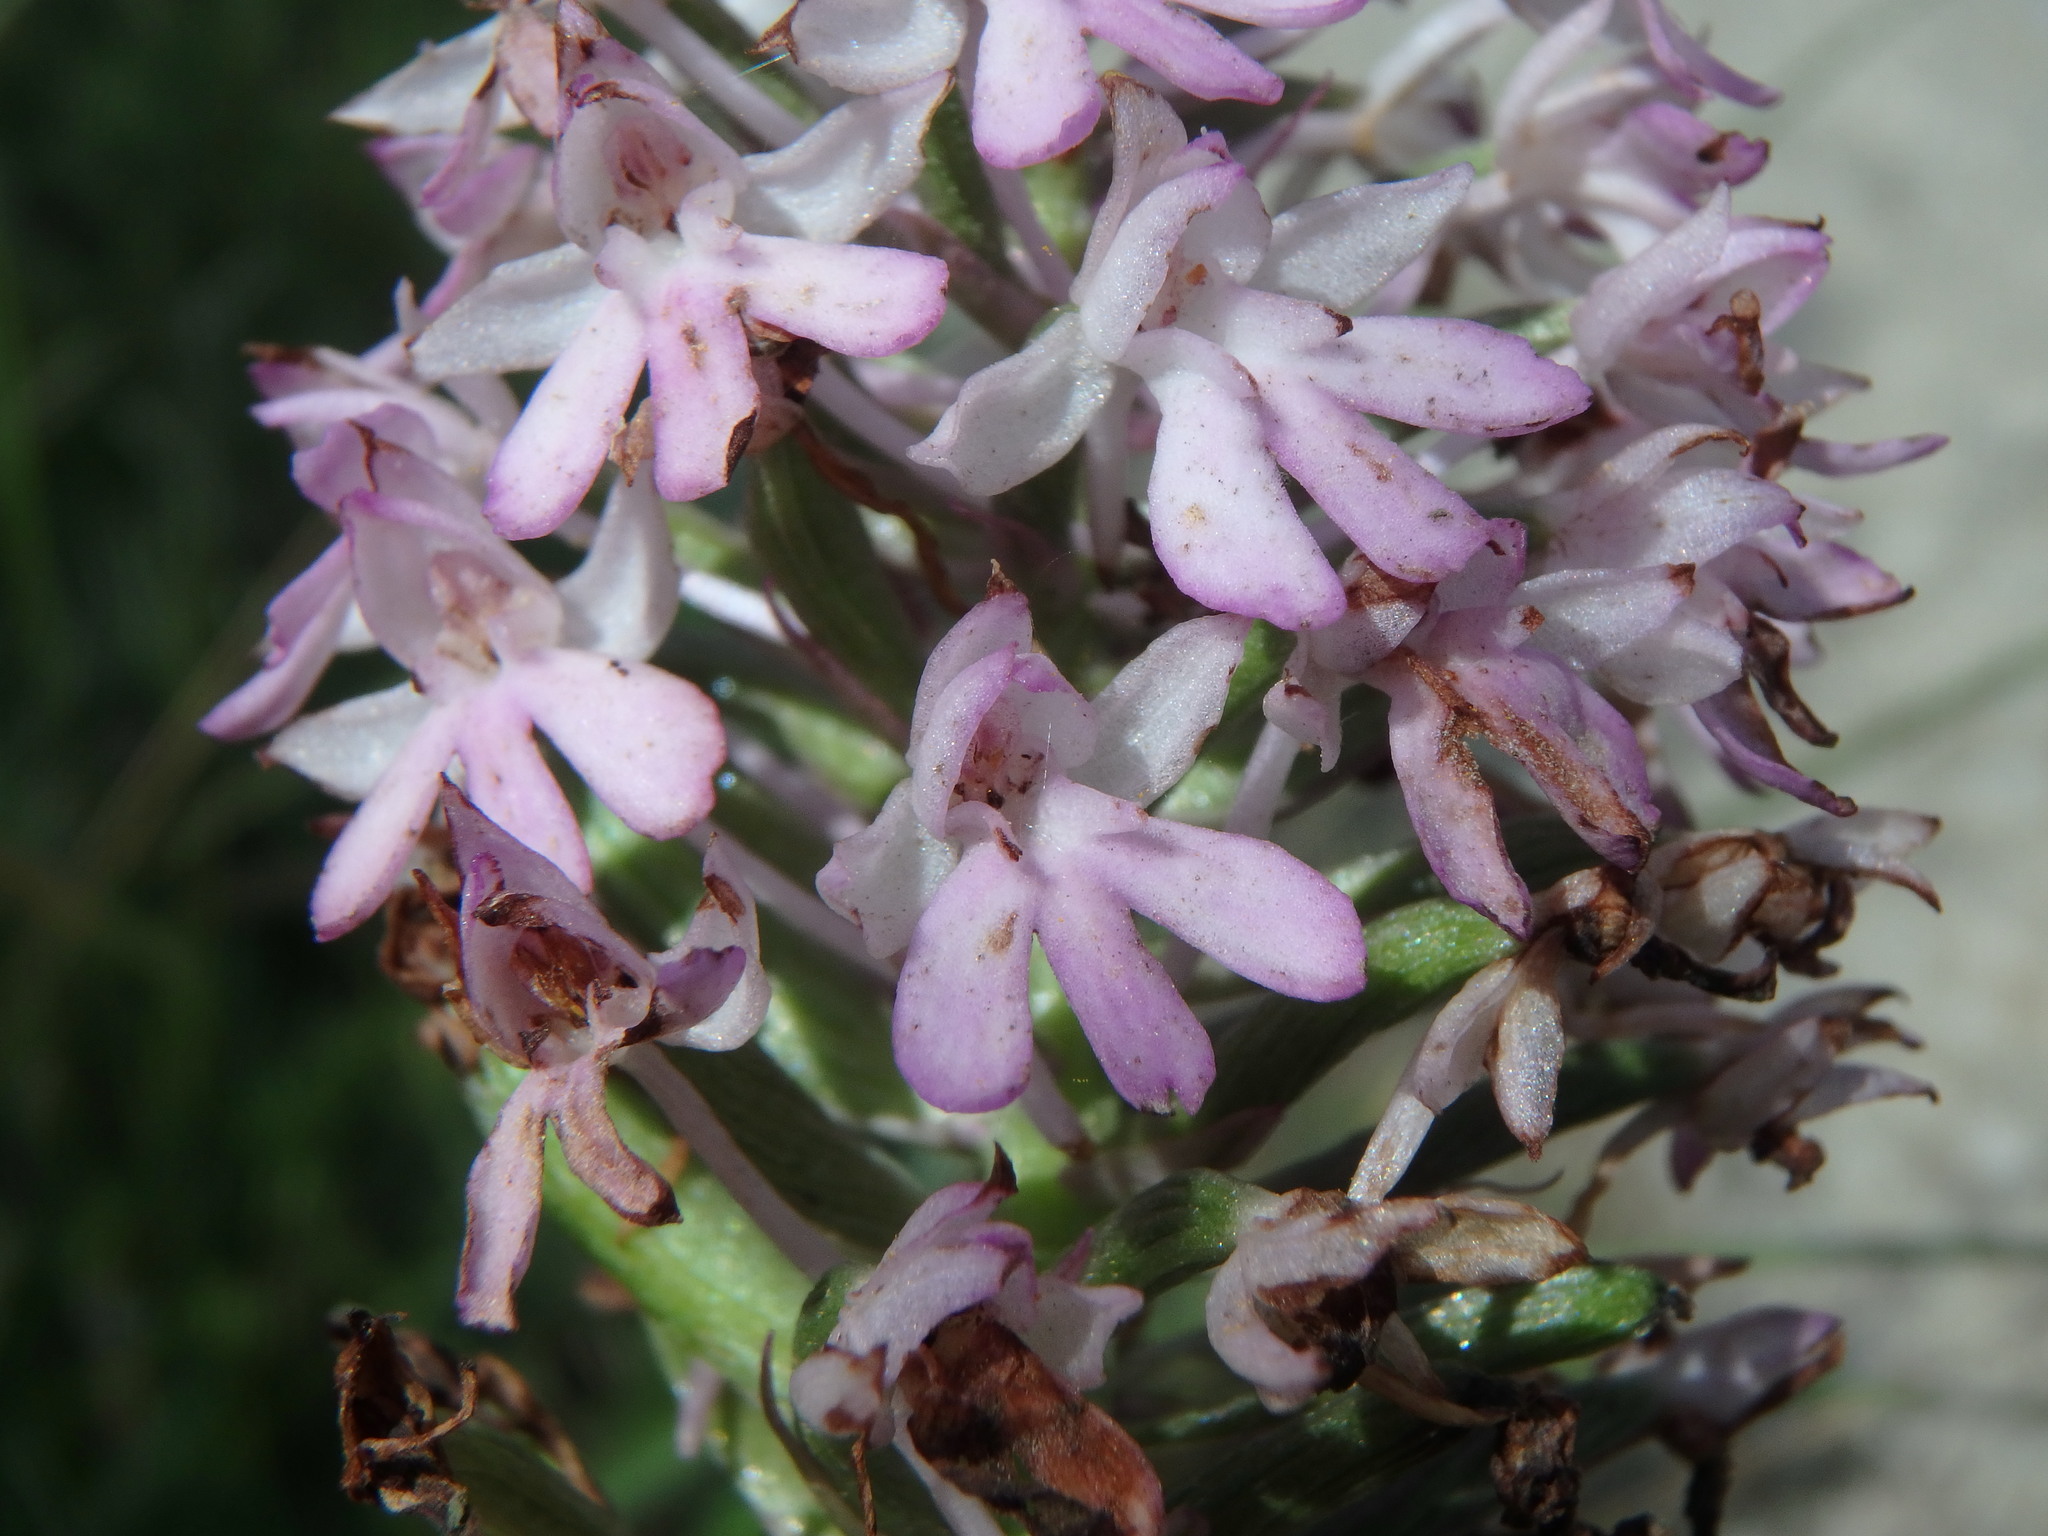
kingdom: Plantae
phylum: Tracheophyta
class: Liliopsida
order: Asparagales
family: Orchidaceae
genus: Anacamptis
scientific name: Anacamptis pyramidalis
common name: Pyramidal orchid
